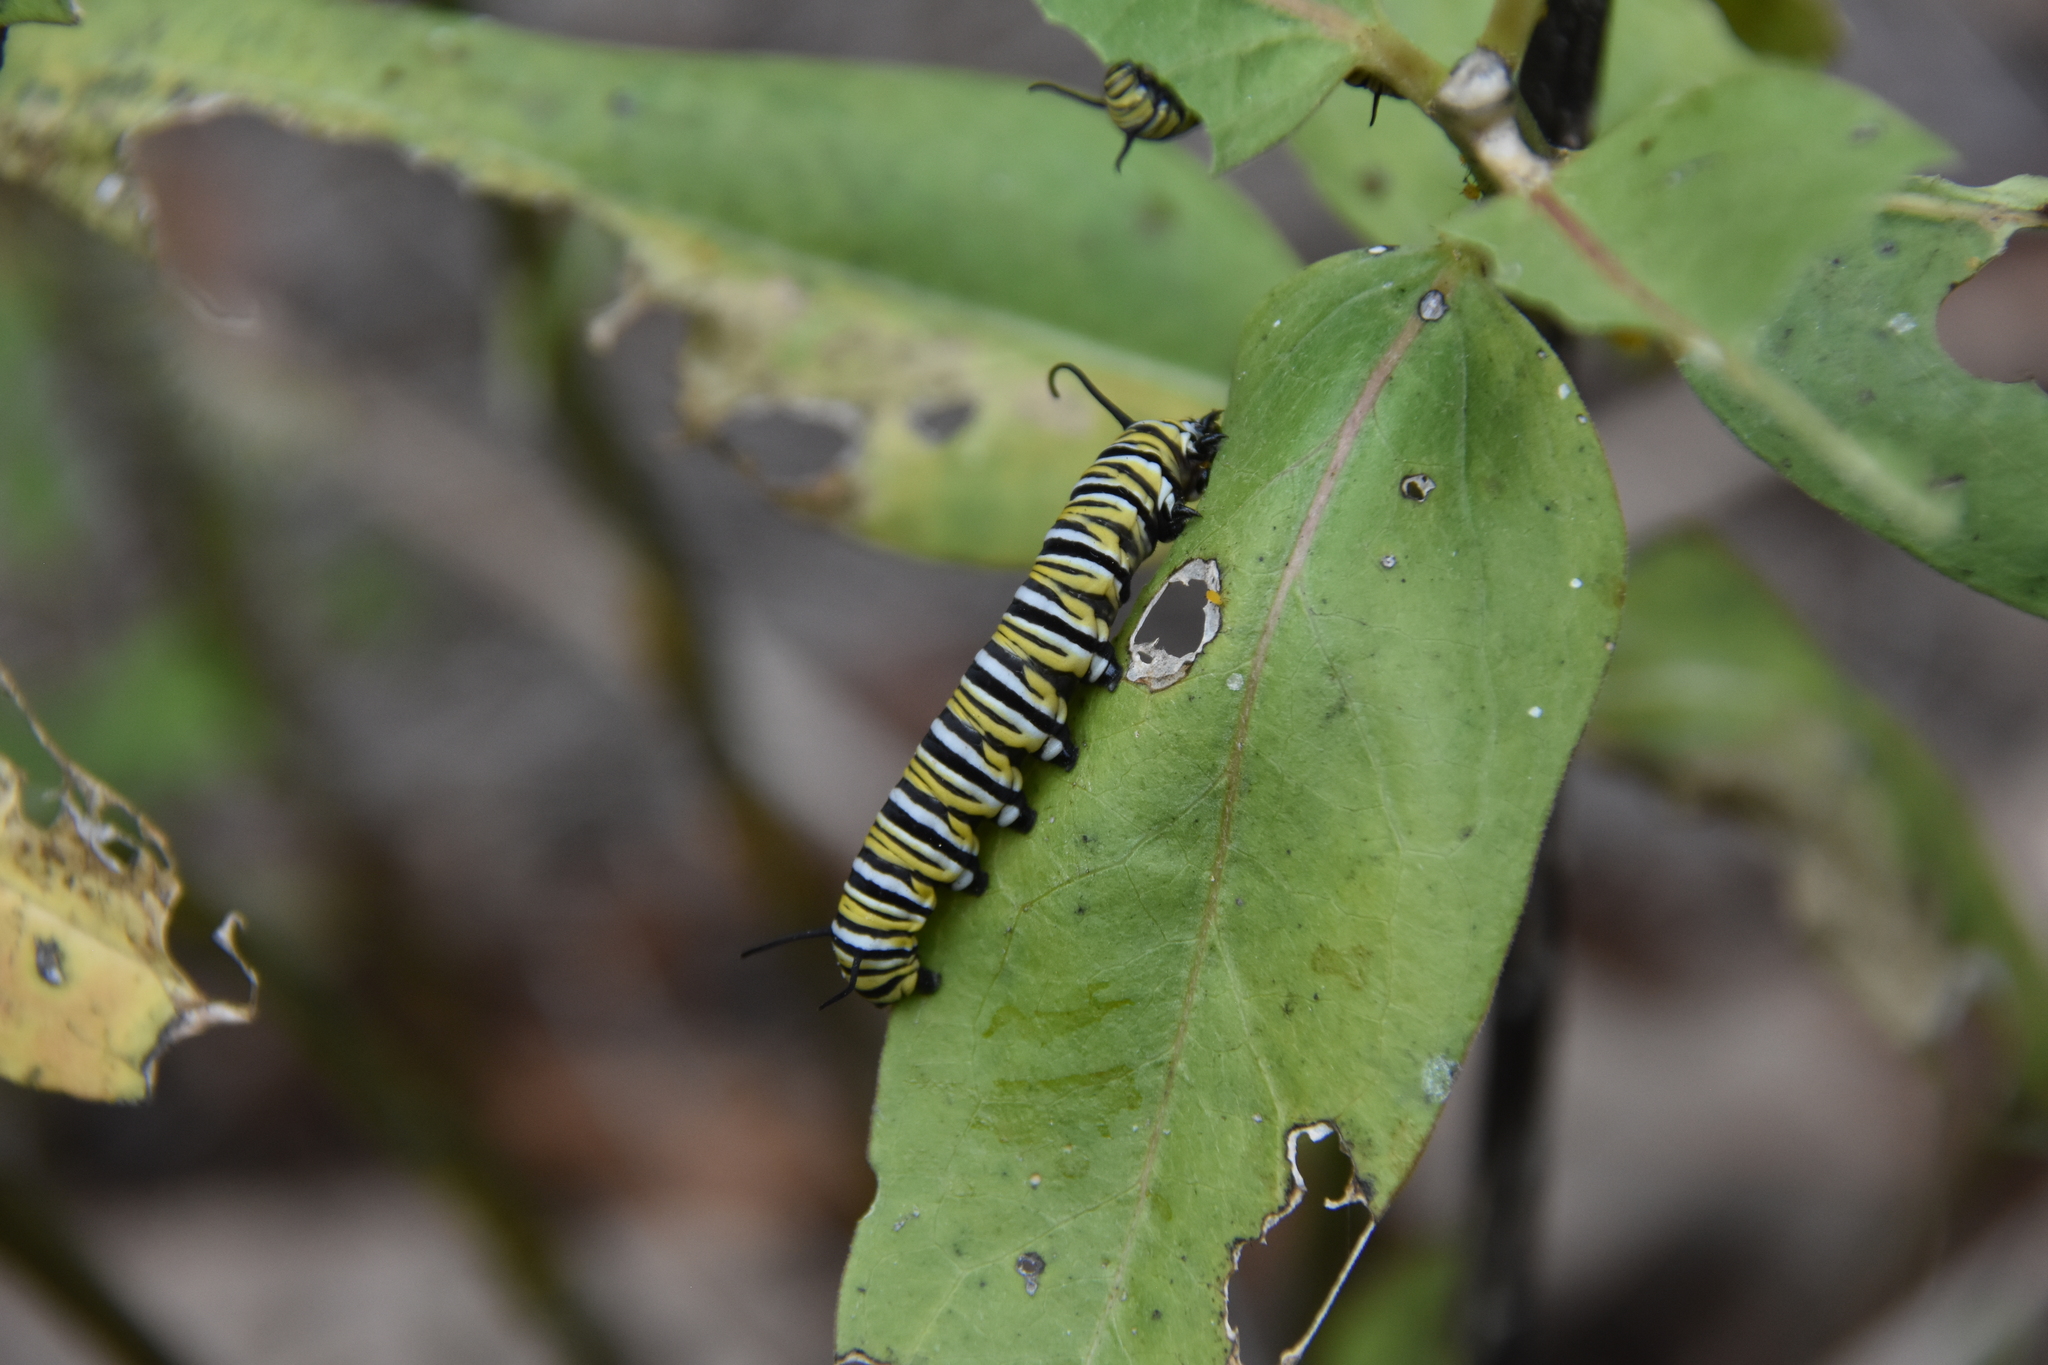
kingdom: Animalia
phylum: Arthropoda
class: Insecta
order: Lepidoptera
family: Nymphalidae
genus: Danaus
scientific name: Danaus plexippus
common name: Monarch
